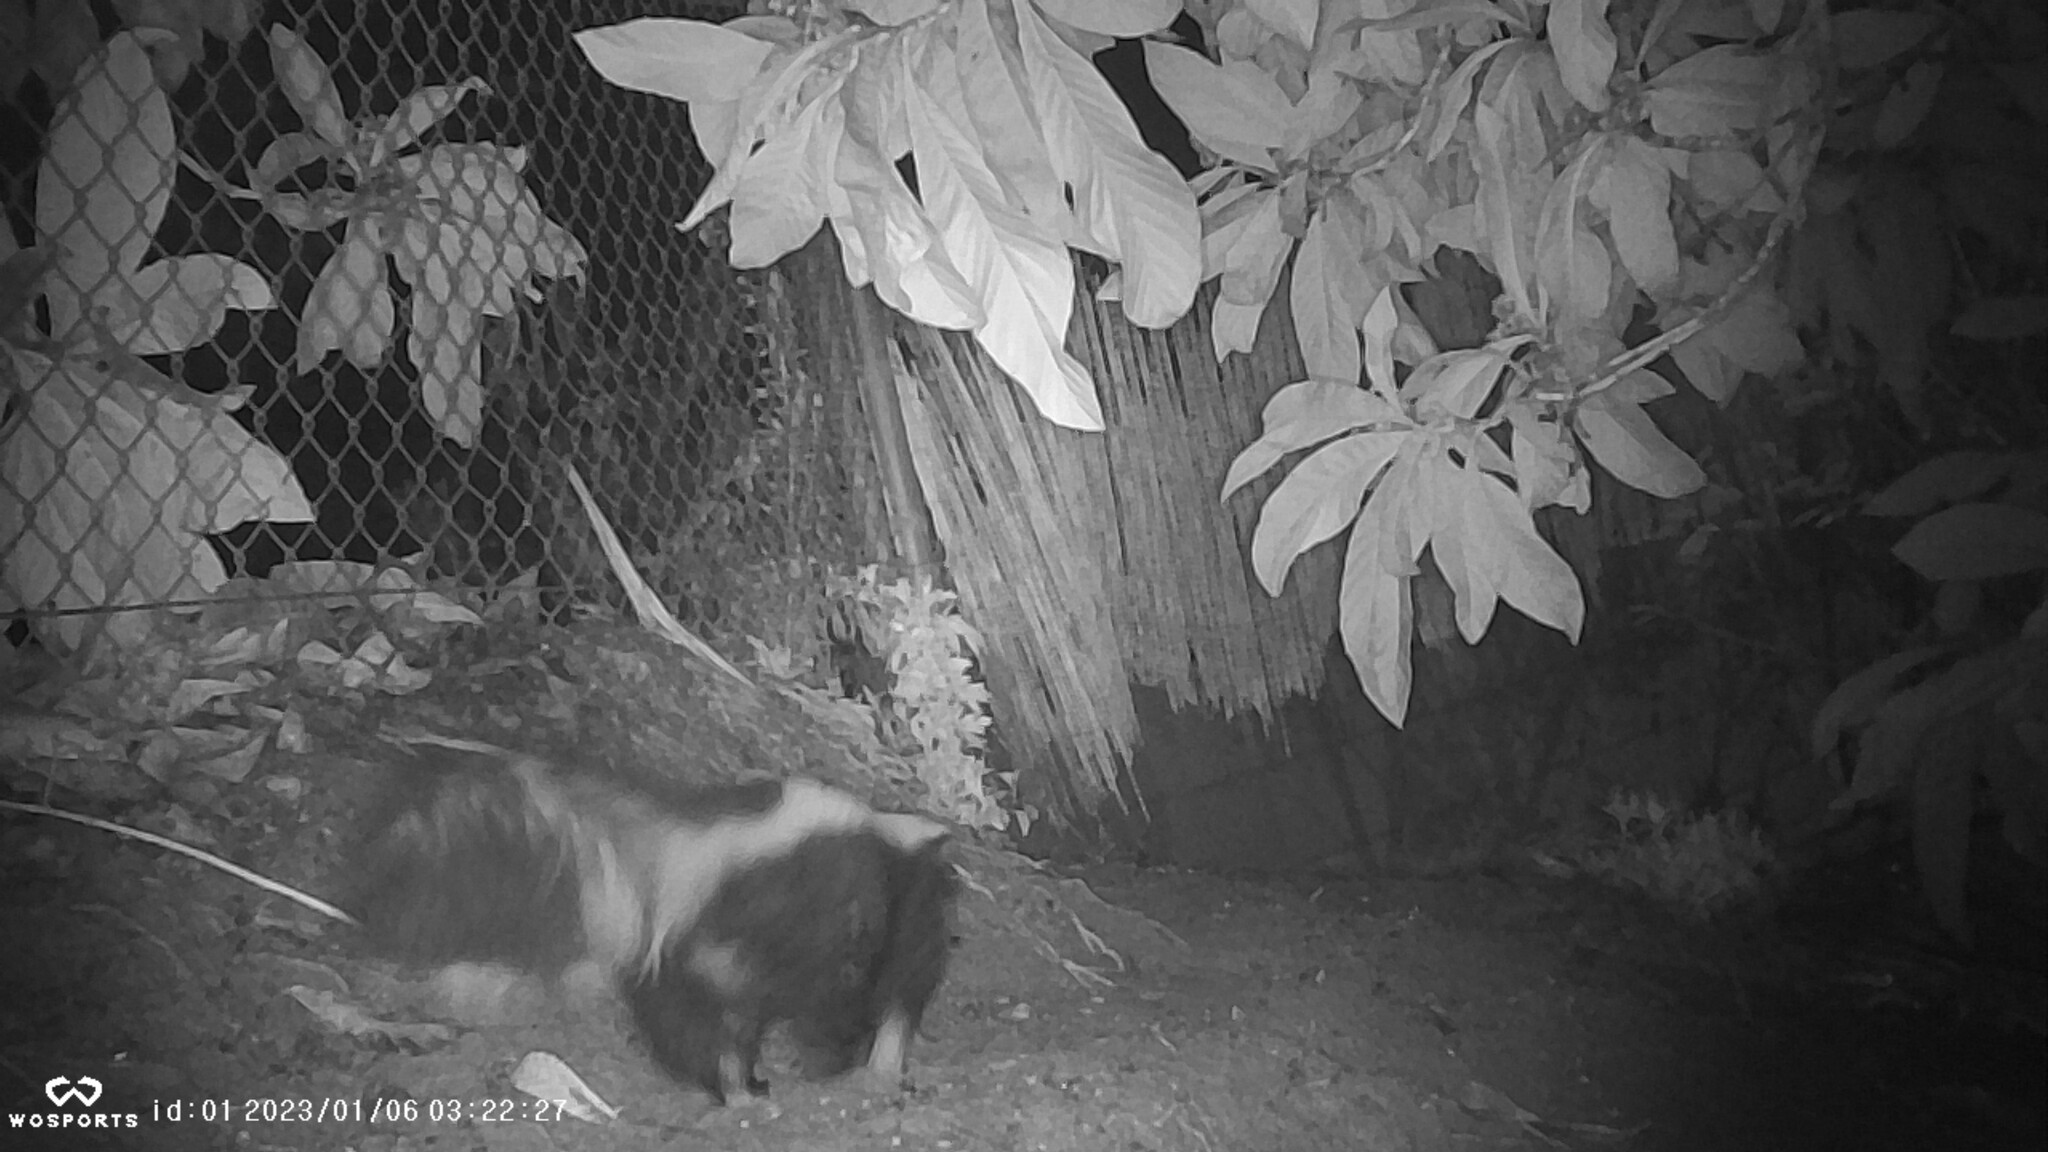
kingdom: Animalia
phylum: Chordata
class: Mammalia
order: Carnivora
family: Mephitidae
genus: Mephitis
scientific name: Mephitis mephitis
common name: Striped skunk
